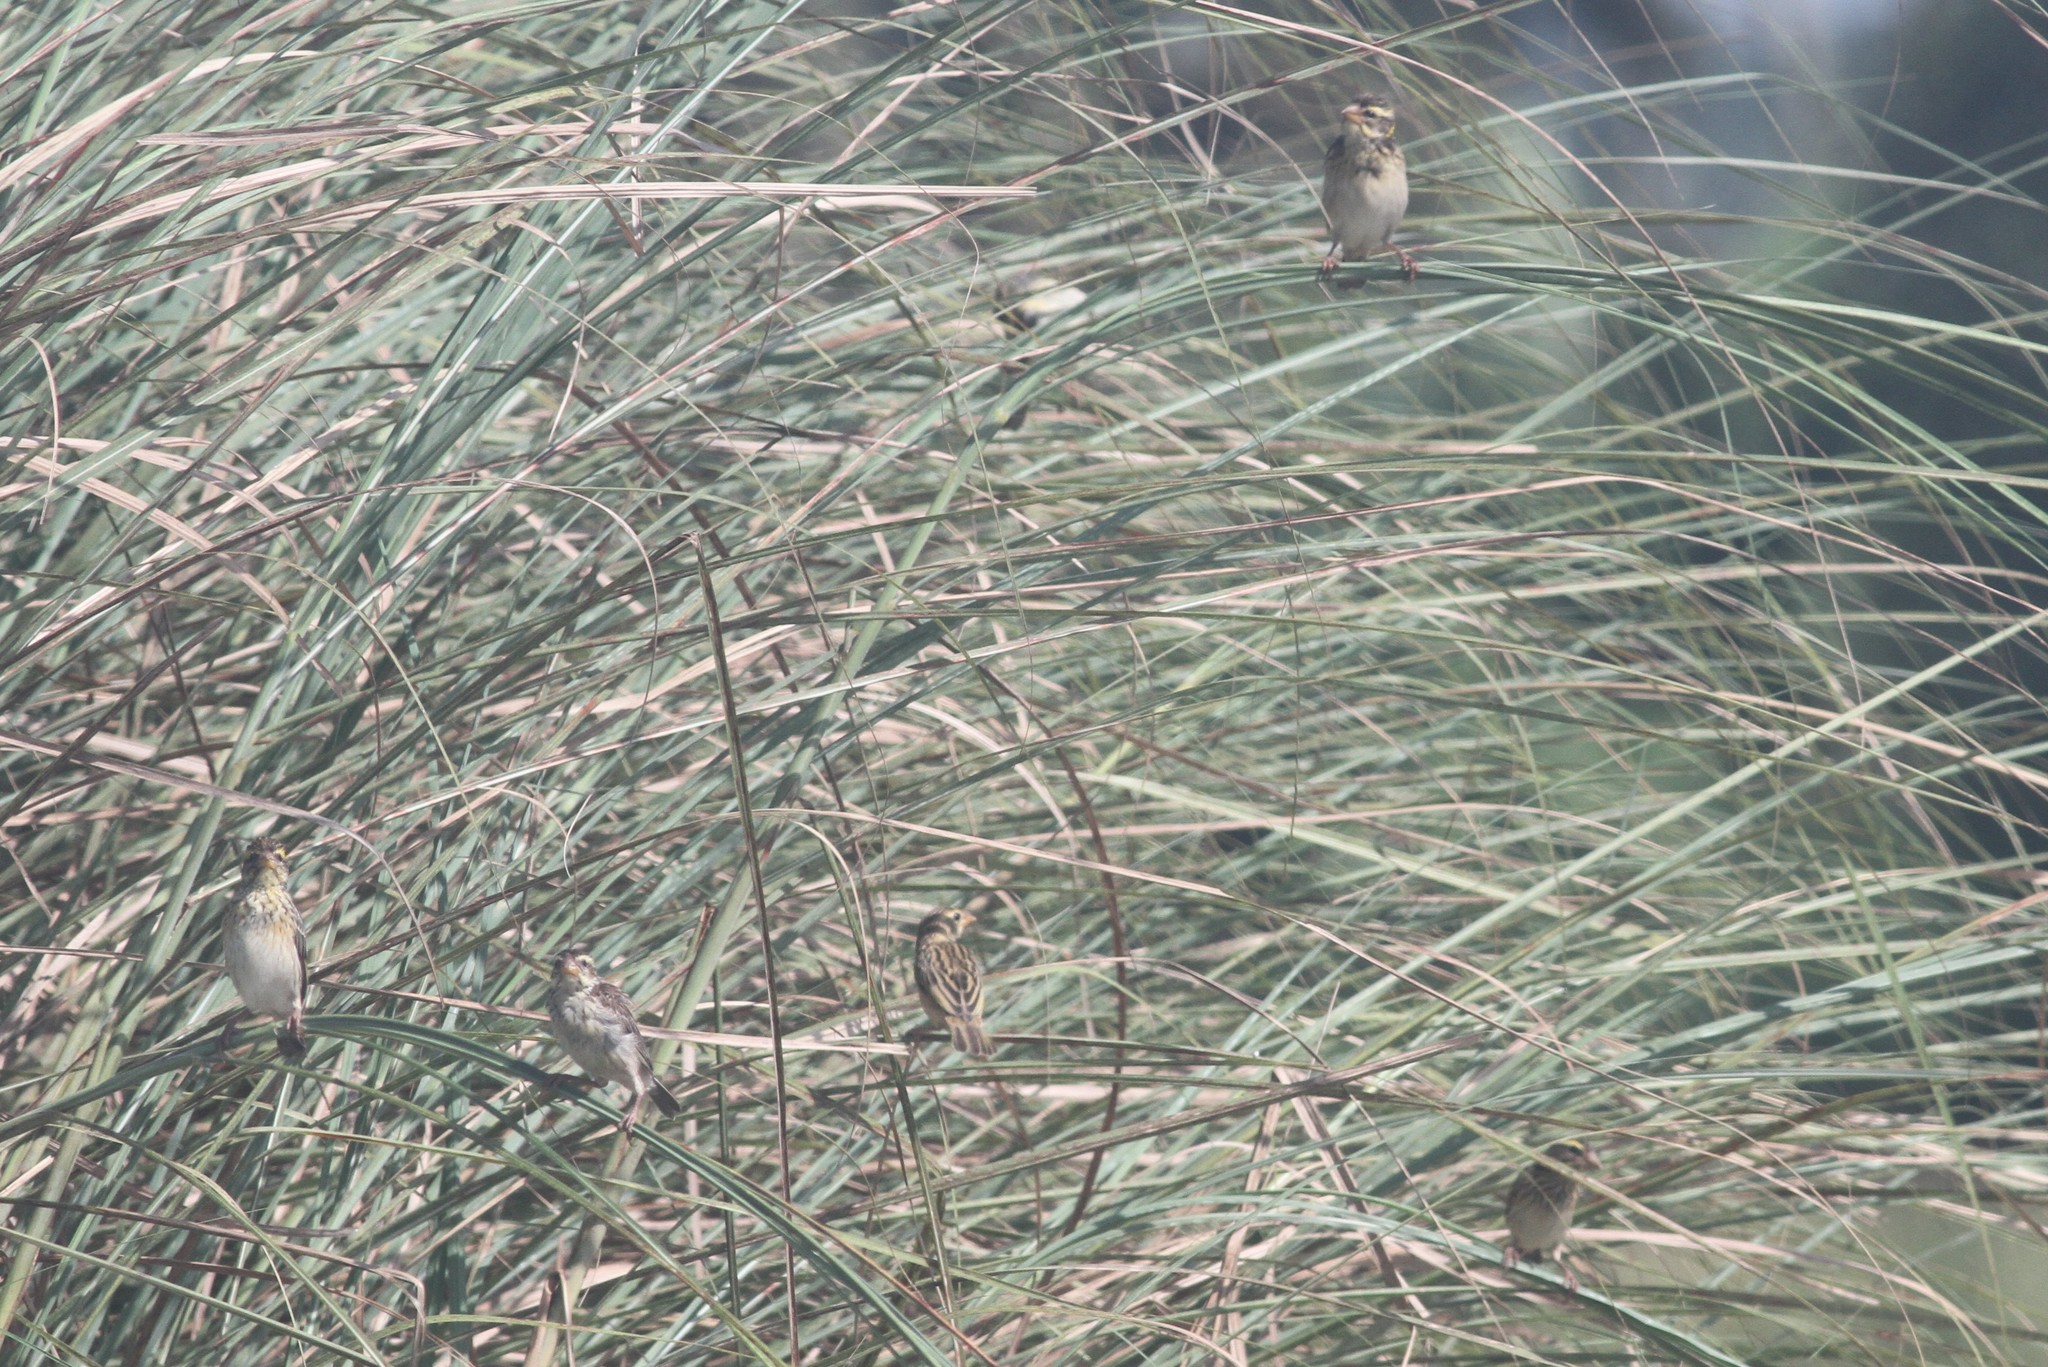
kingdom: Animalia
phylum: Chordata
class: Aves
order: Passeriformes
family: Ploceidae
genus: Ploceus
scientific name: Ploceus manyar
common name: Streaked weaver
